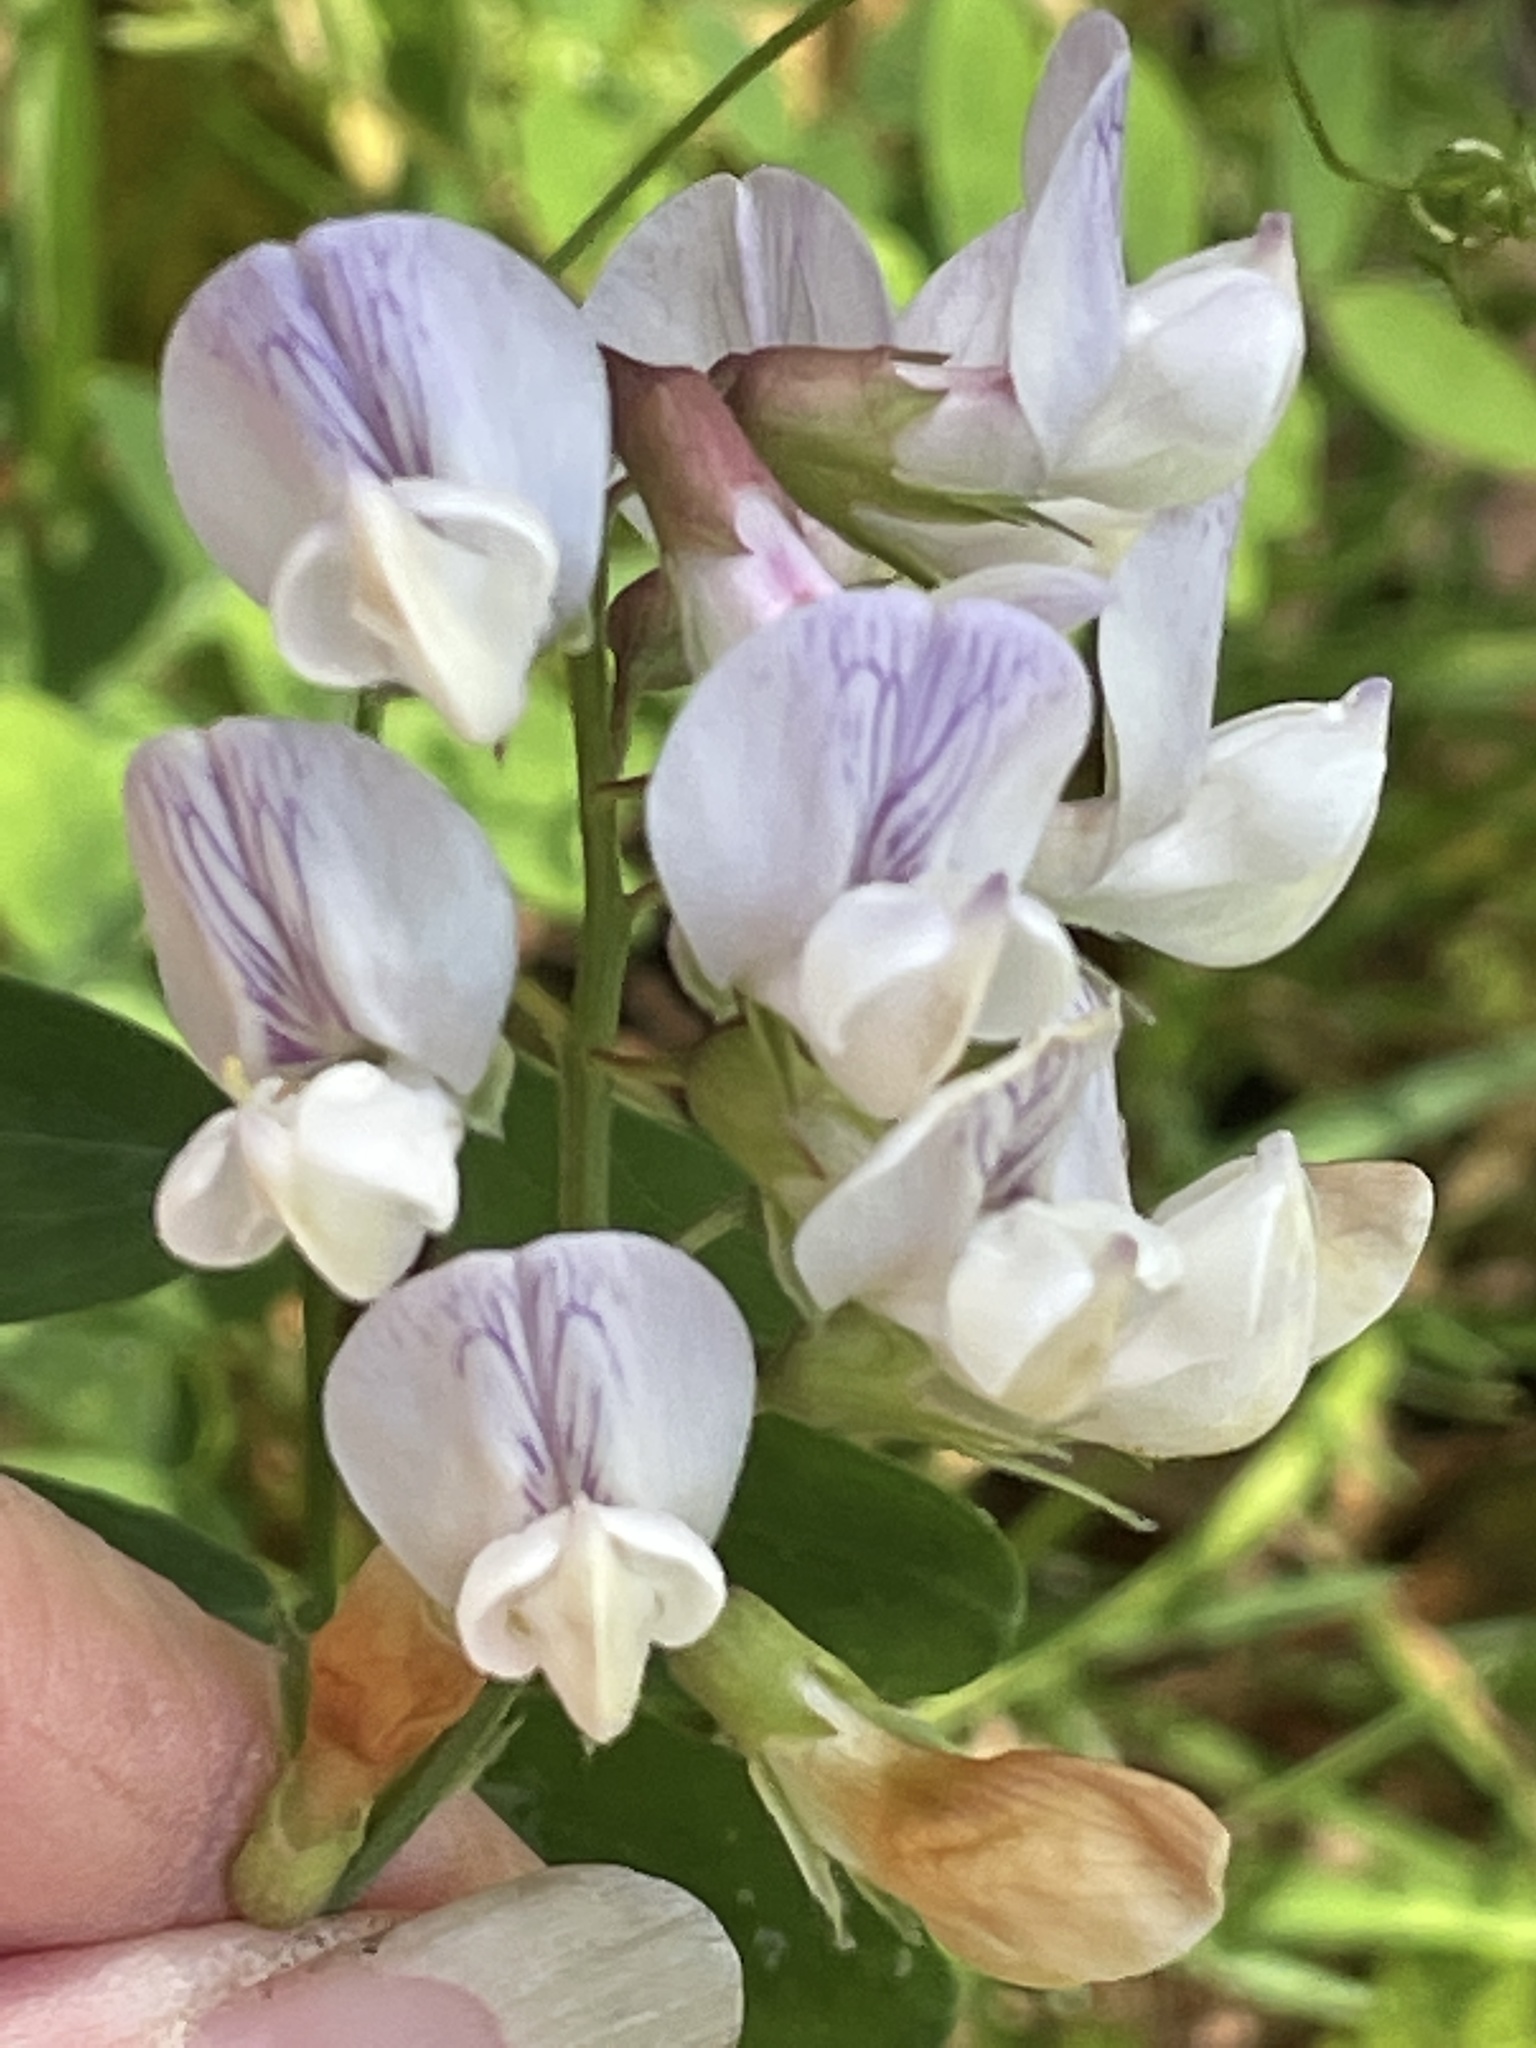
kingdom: Plantae
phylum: Tracheophyta
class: Magnoliopsida
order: Fabales
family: Fabaceae
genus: Lathyrus
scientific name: Lathyrus vestitus
